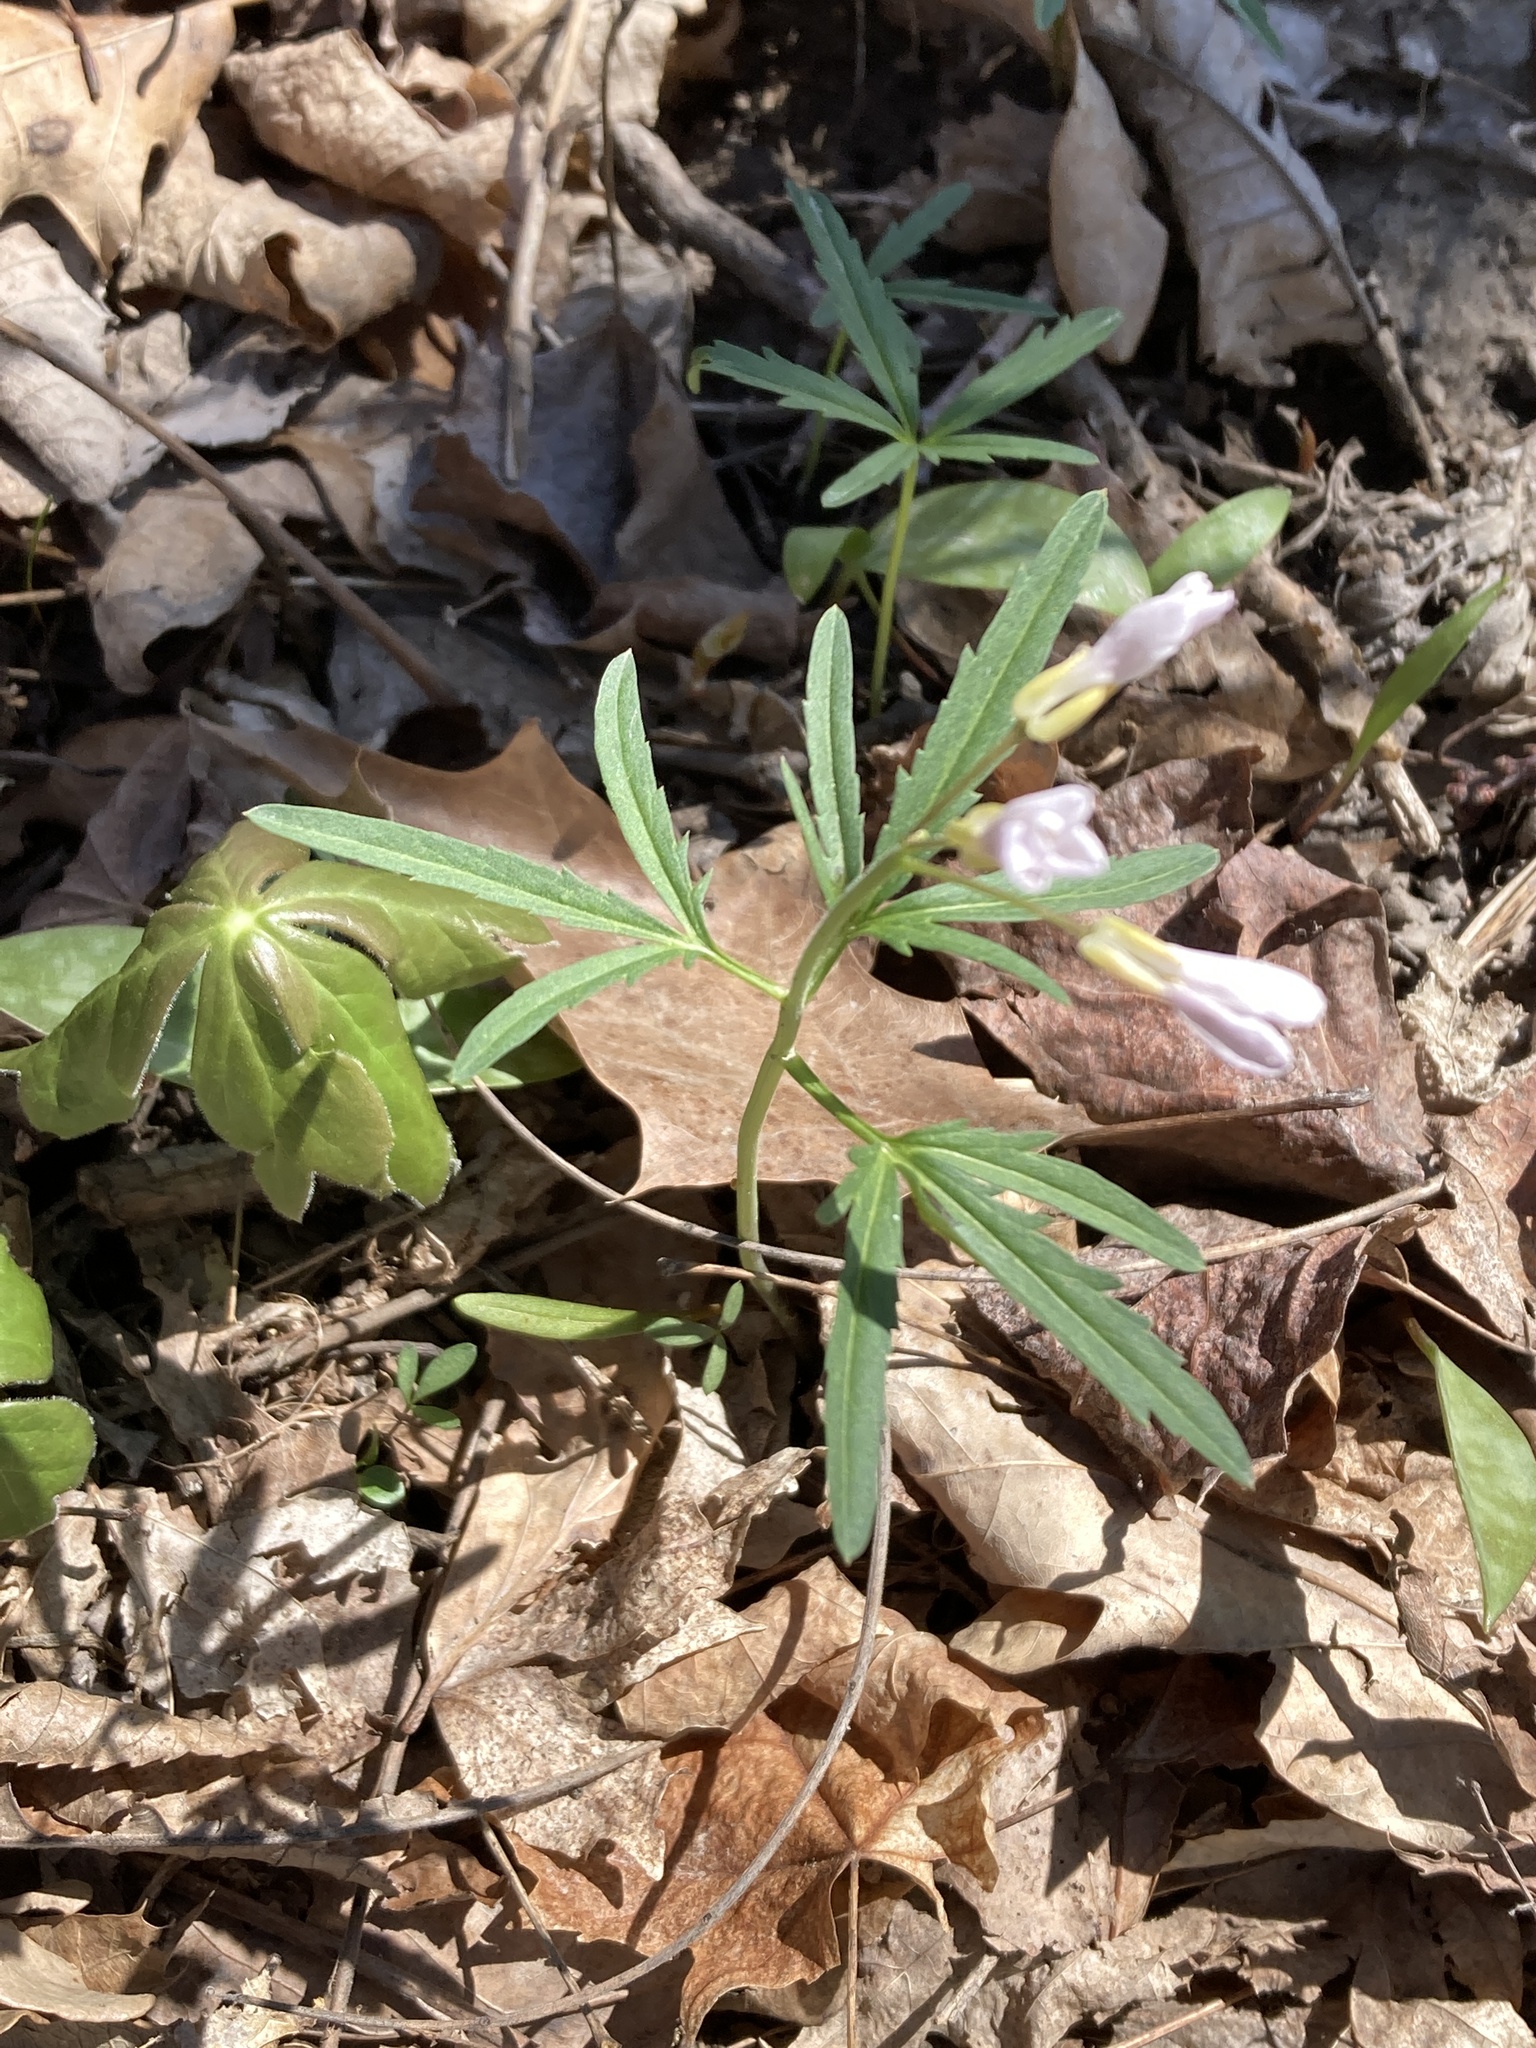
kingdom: Plantae
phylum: Tracheophyta
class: Magnoliopsida
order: Brassicales
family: Brassicaceae
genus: Cardamine
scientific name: Cardamine concatenata
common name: Cut-leaf toothcup
